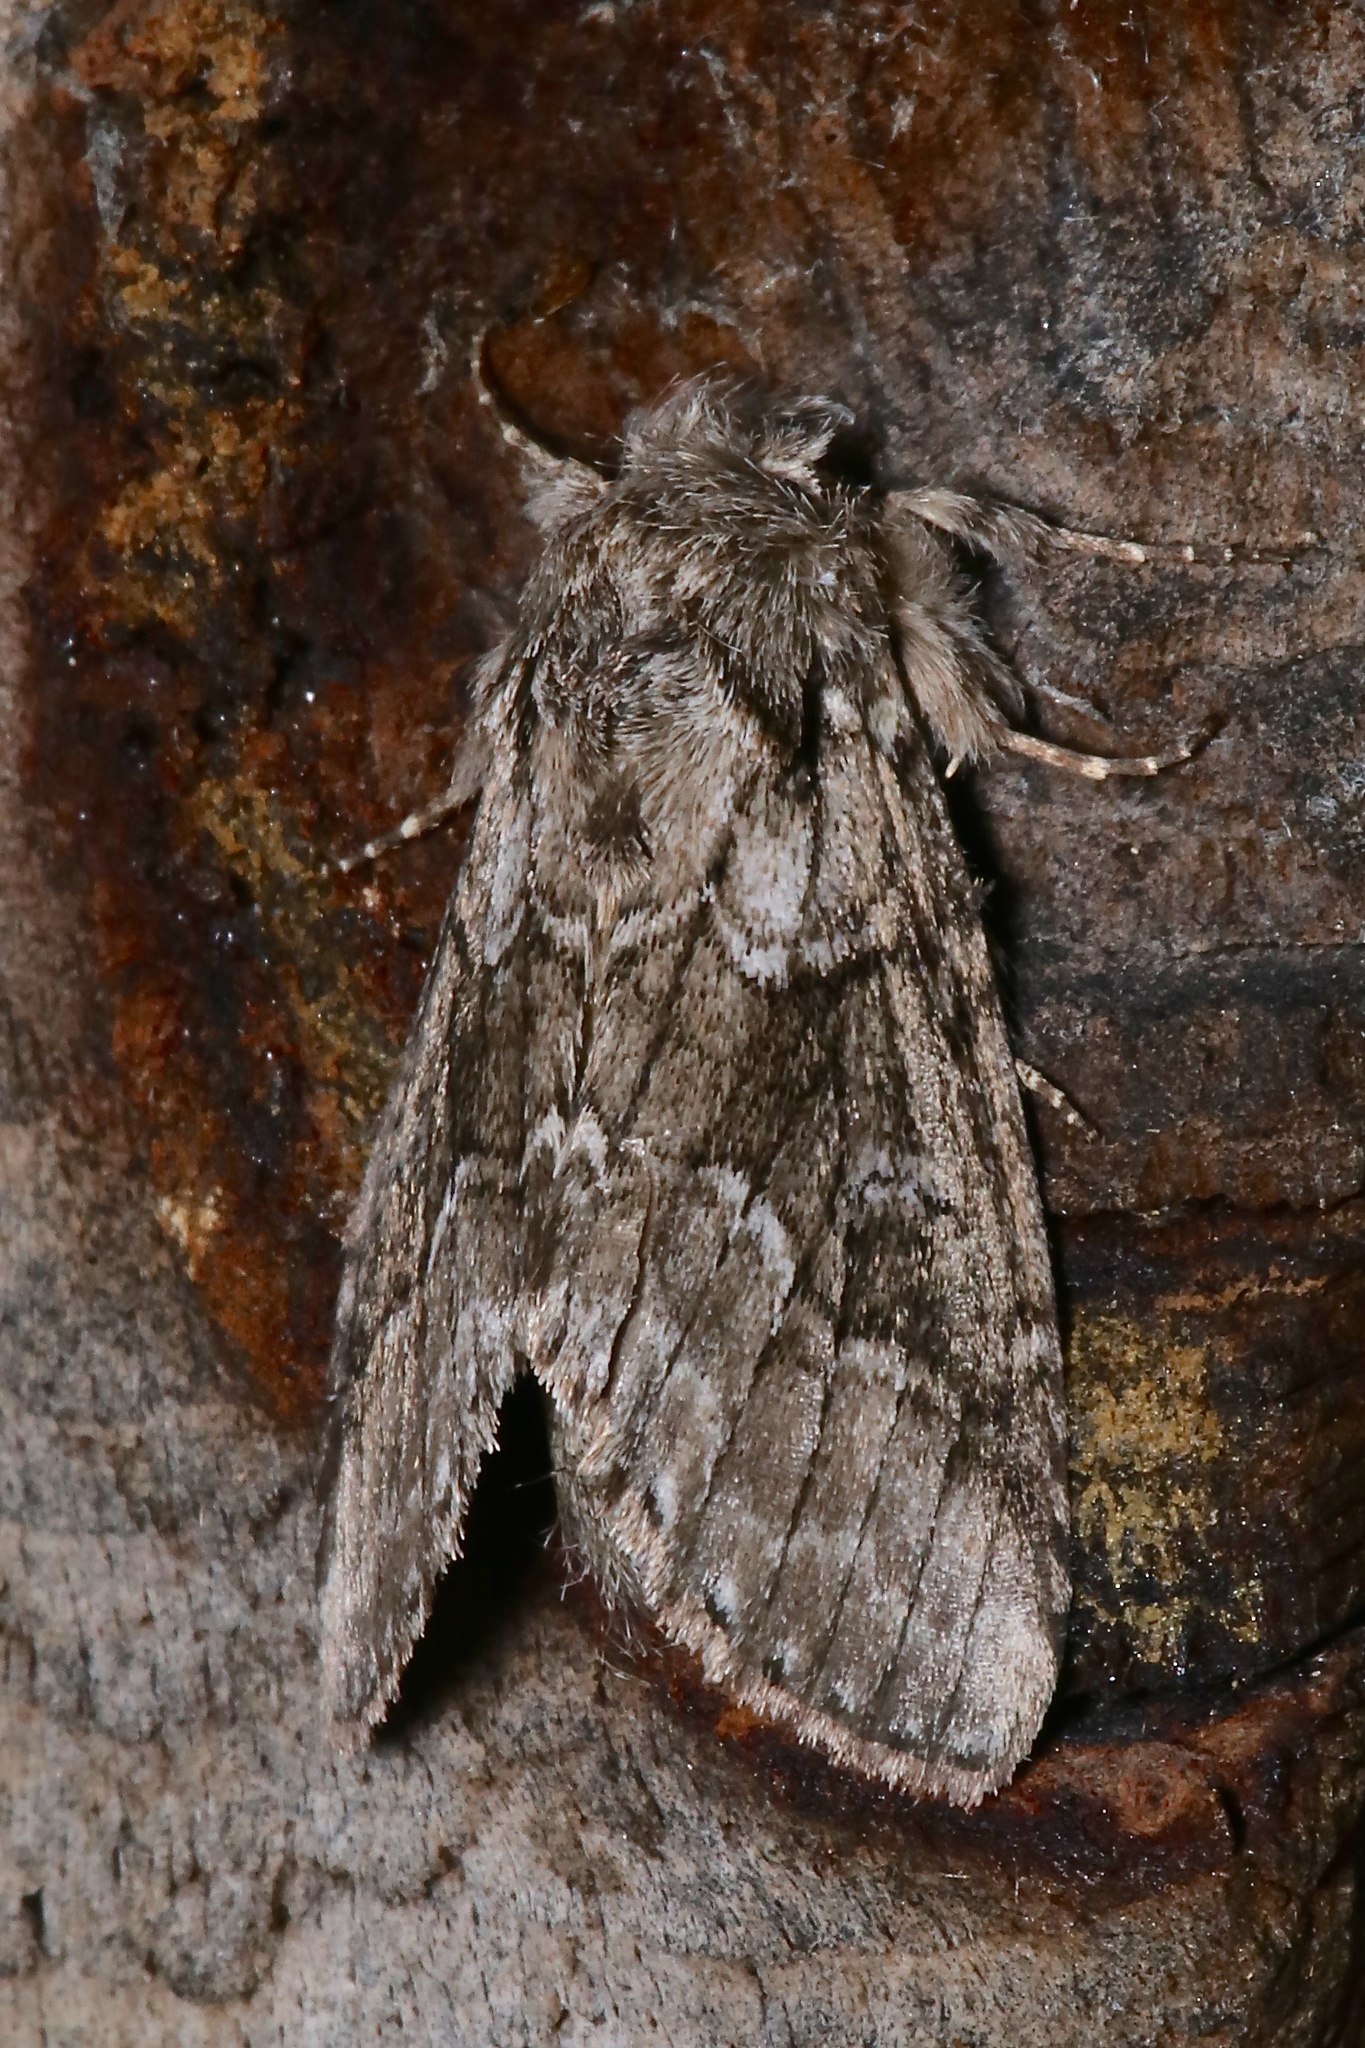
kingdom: Animalia
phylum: Arthropoda
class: Insecta
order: Lepidoptera
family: Notodontidae
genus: Lochmaeus
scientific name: Lochmaeus bilineata
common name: Double-lined prominent
